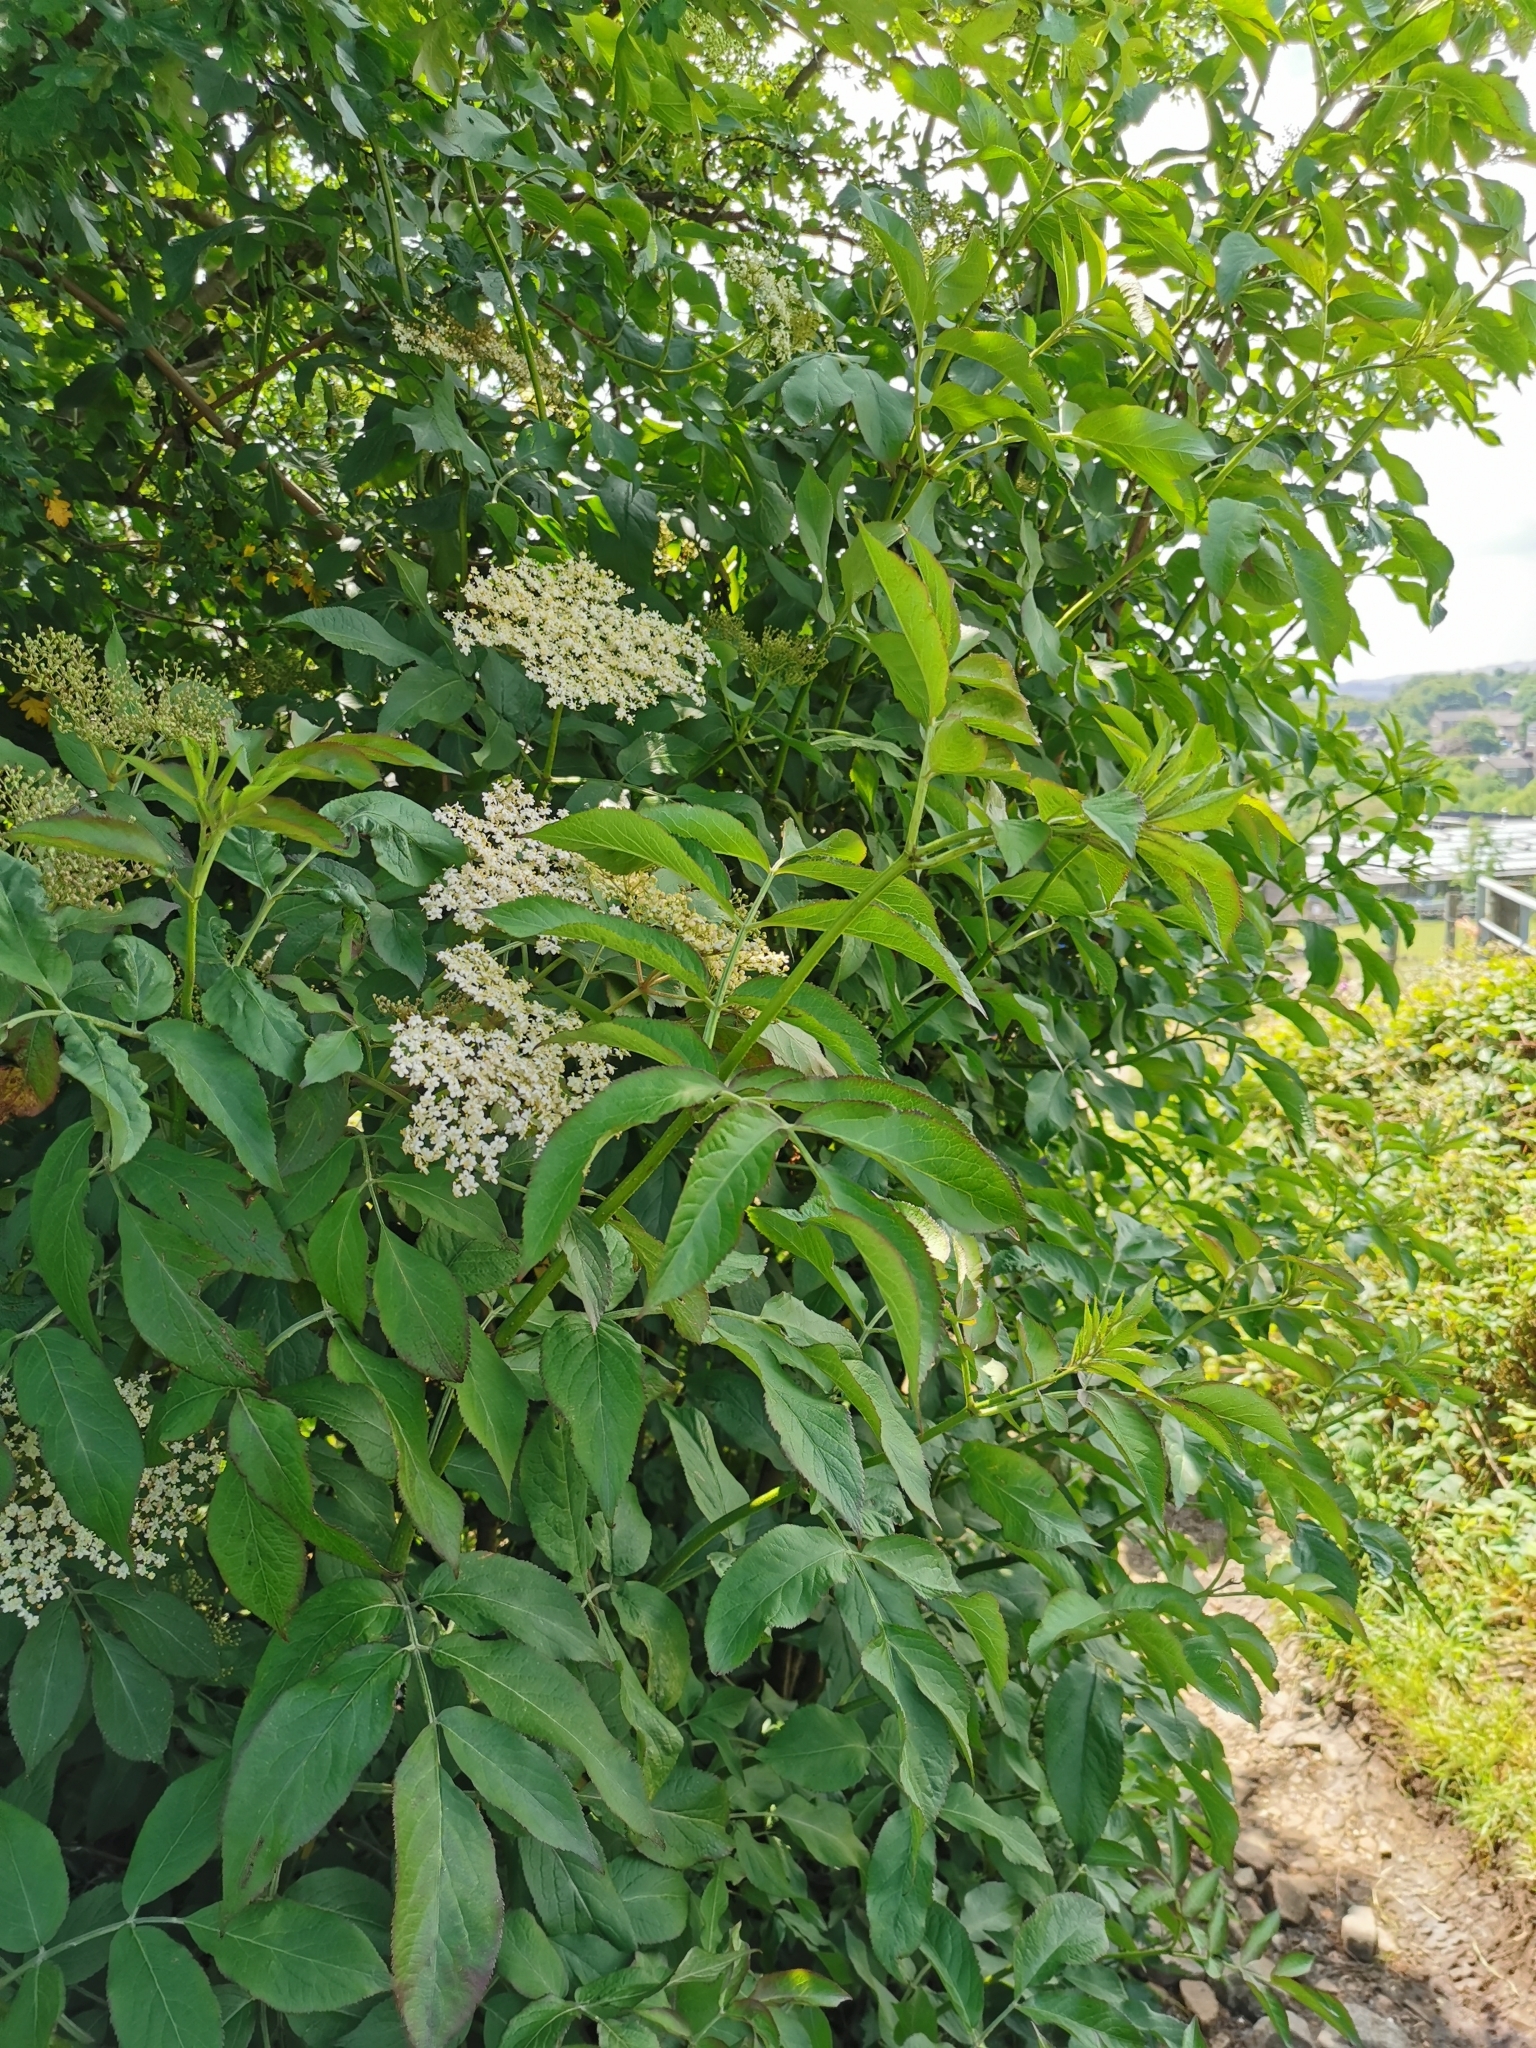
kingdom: Plantae
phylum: Tracheophyta
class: Magnoliopsida
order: Dipsacales
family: Viburnaceae
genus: Sambucus
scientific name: Sambucus nigra
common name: Elder
